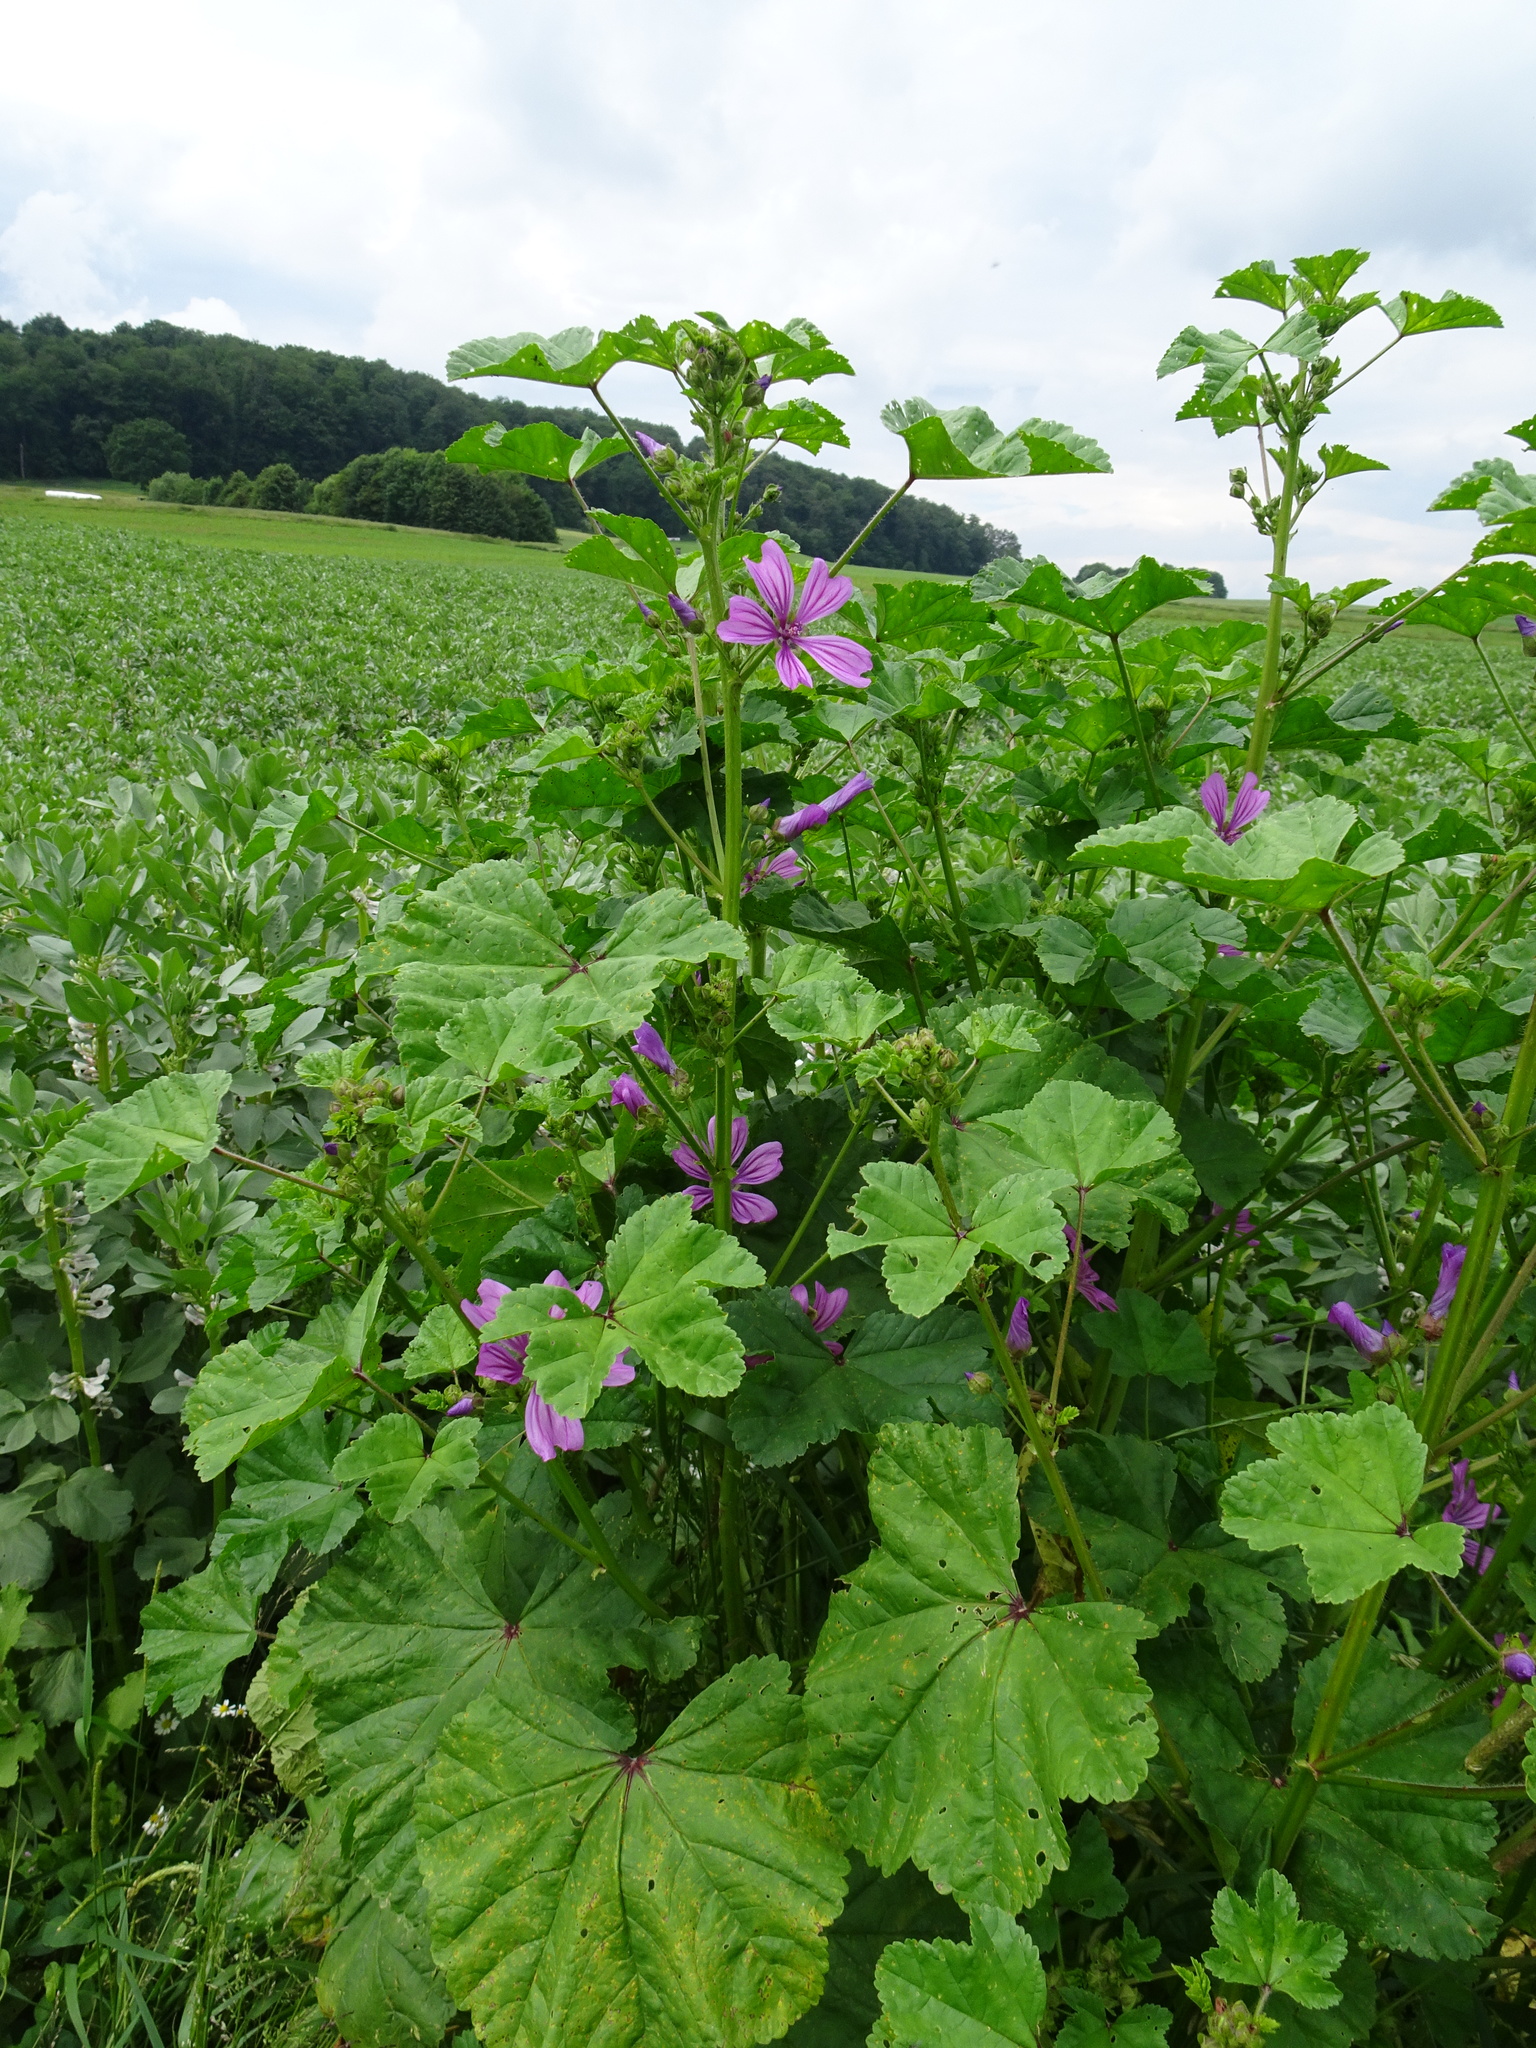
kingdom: Plantae
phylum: Tracheophyta
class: Magnoliopsida
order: Malvales
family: Malvaceae
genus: Malva
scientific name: Malva sylvestris
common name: Common mallow
